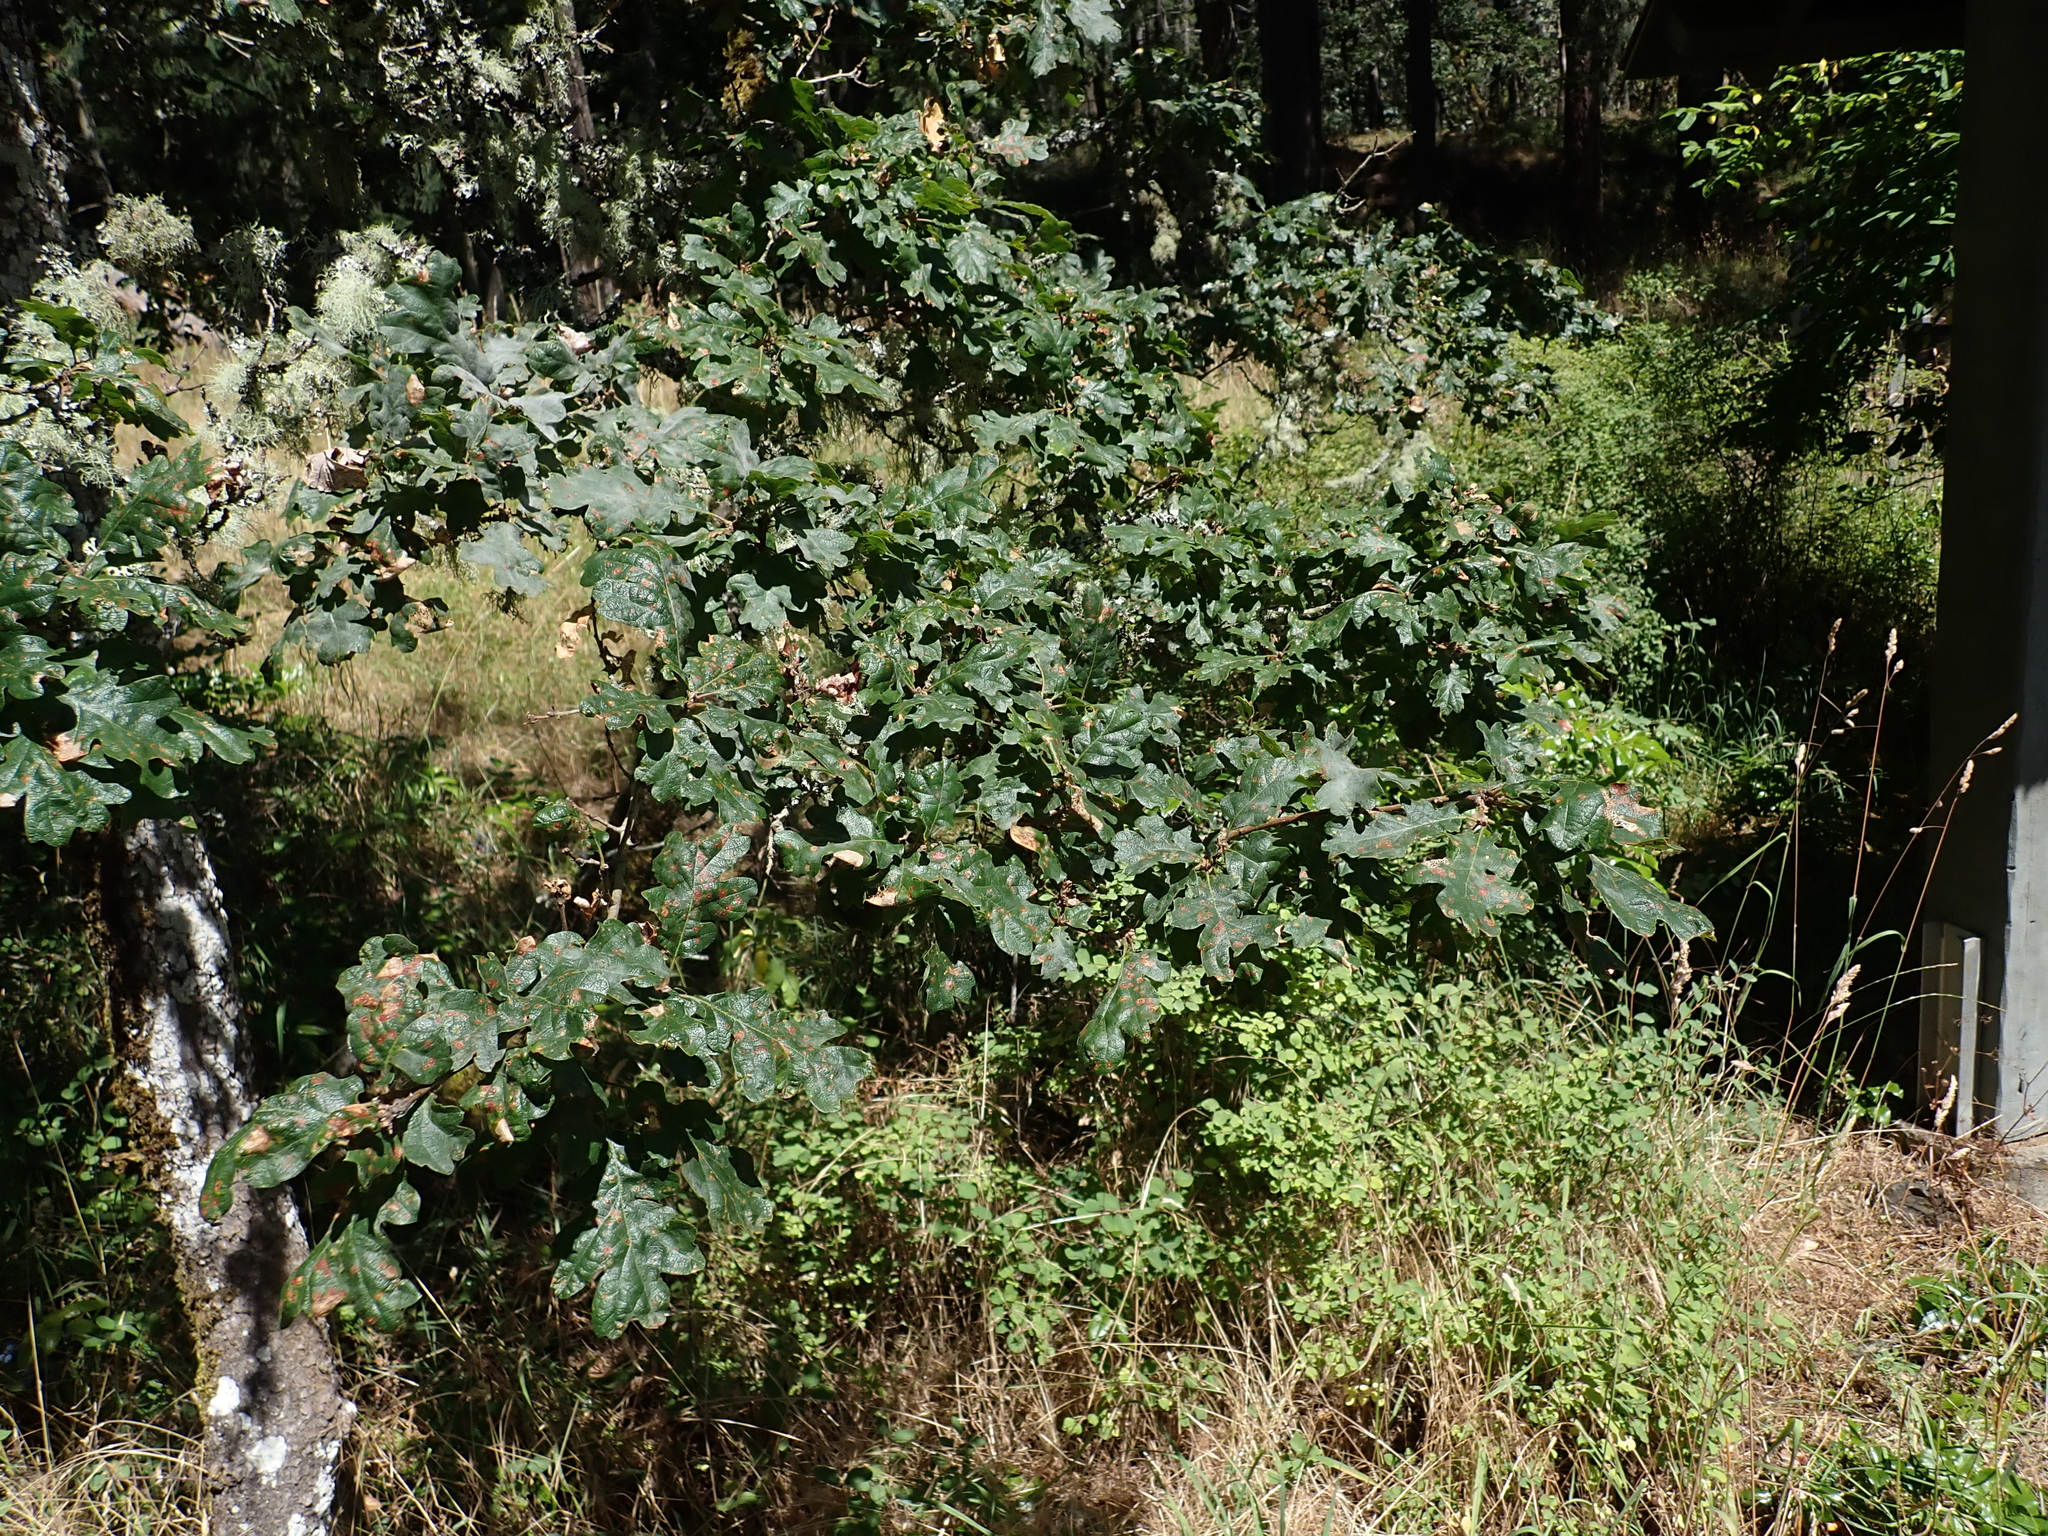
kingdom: Animalia
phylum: Arthropoda
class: Insecta
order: Hymenoptera
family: Cynipidae
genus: Neuroterus
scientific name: Neuroterus saltarius
